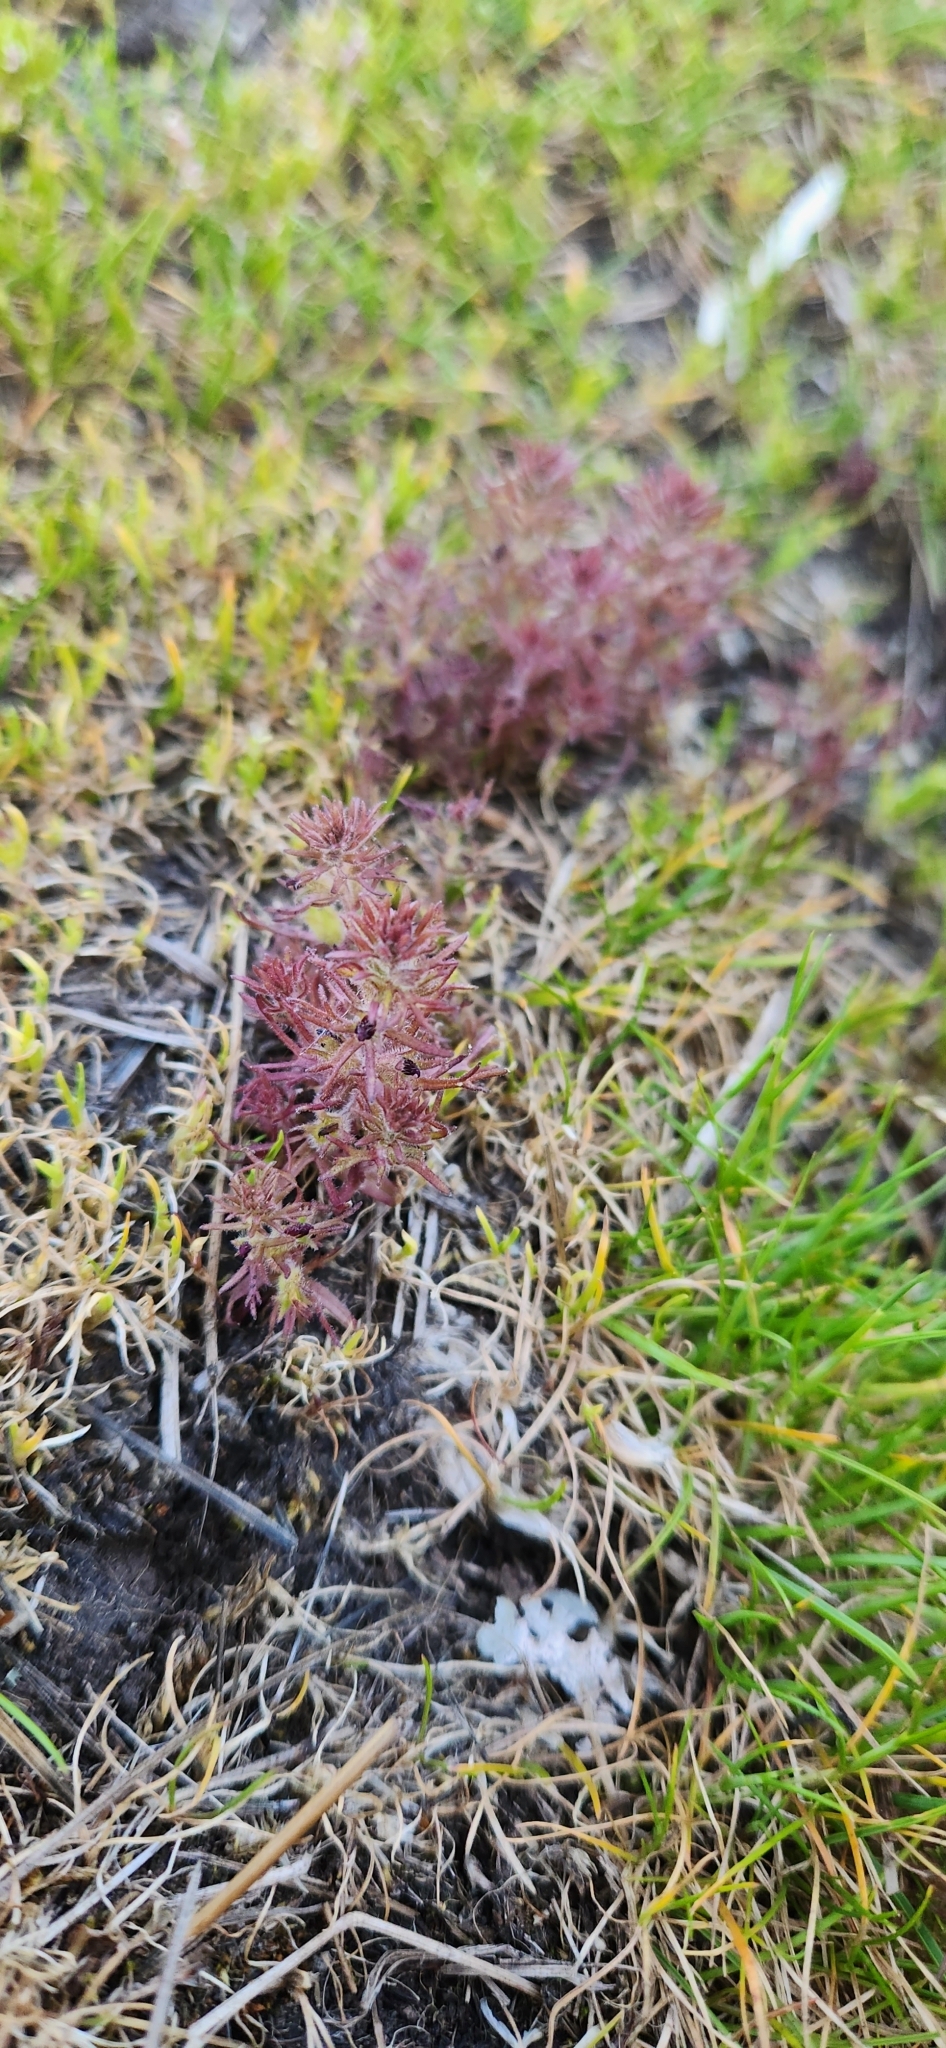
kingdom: Plantae
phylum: Tracheophyta
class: Magnoliopsida
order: Lamiales
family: Orobanchaceae
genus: Triphysaria
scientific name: Triphysaria pusilla
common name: Dwarf false owl-clover
